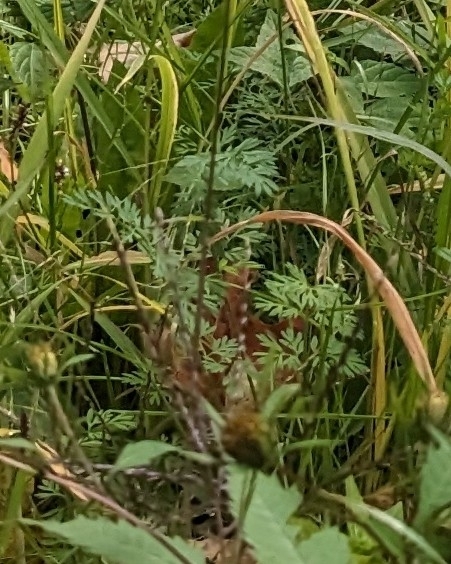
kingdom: Plantae
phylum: Tracheophyta
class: Magnoliopsida
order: Apiales
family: Apiaceae
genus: Daucus
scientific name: Daucus carota
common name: Wild carrot
